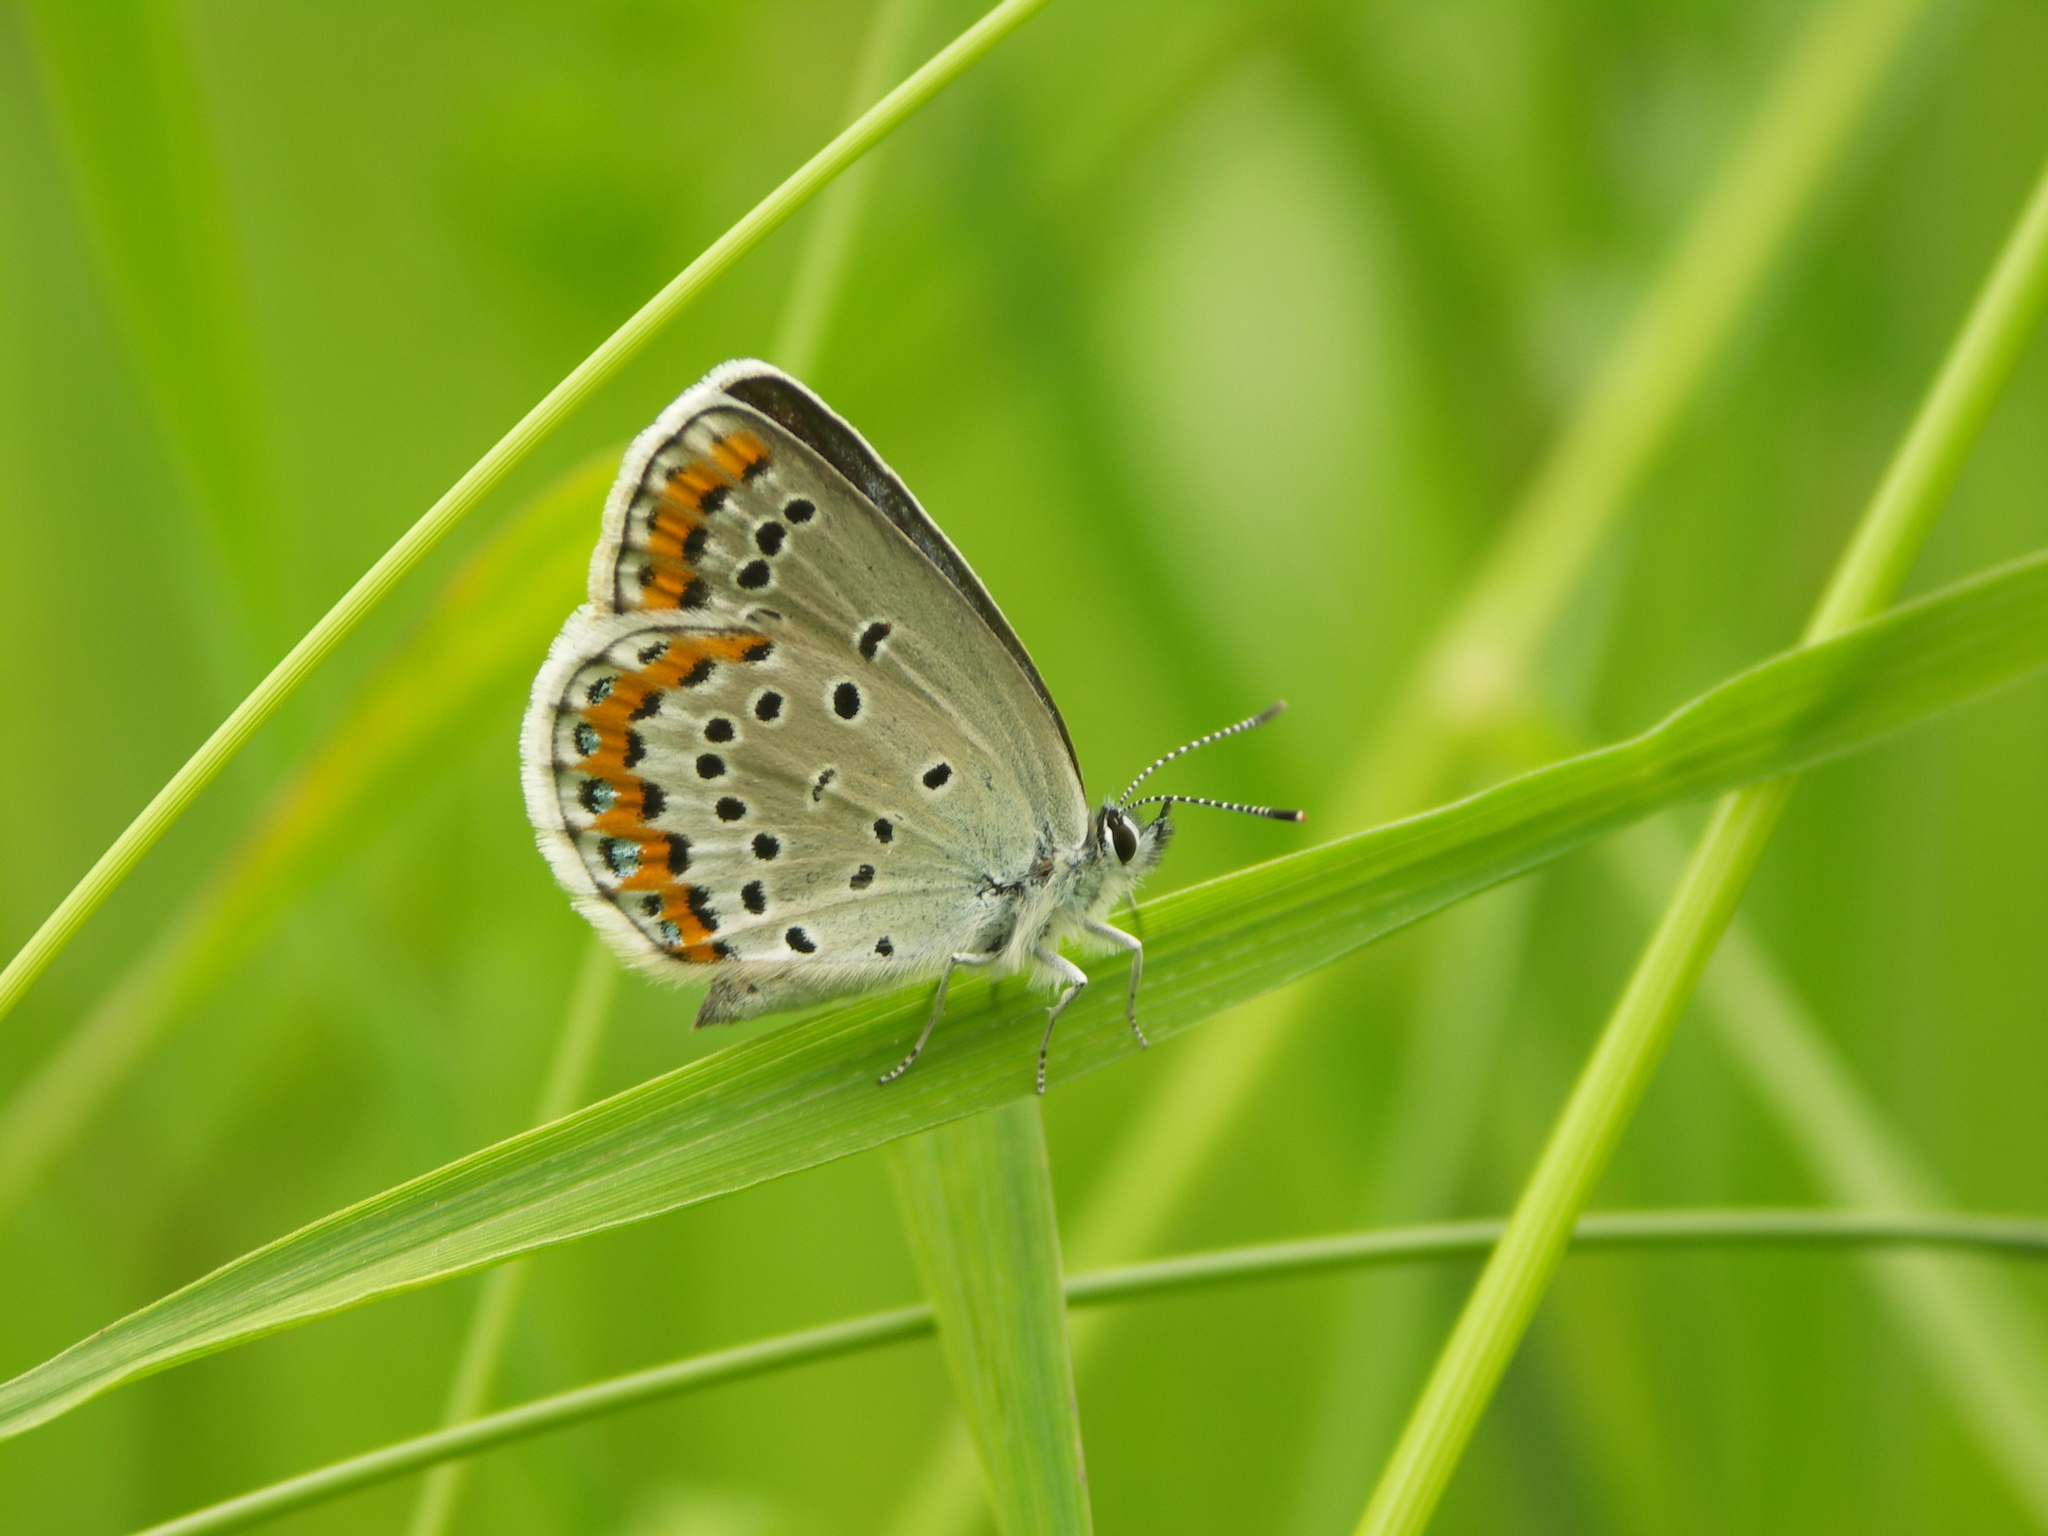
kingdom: Animalia
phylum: Arthropoda
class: Insecta
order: Lepidoptera
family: Lycaenidae
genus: Plebejus
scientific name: Plebejus argyrognomon
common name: Reverdin's blue
